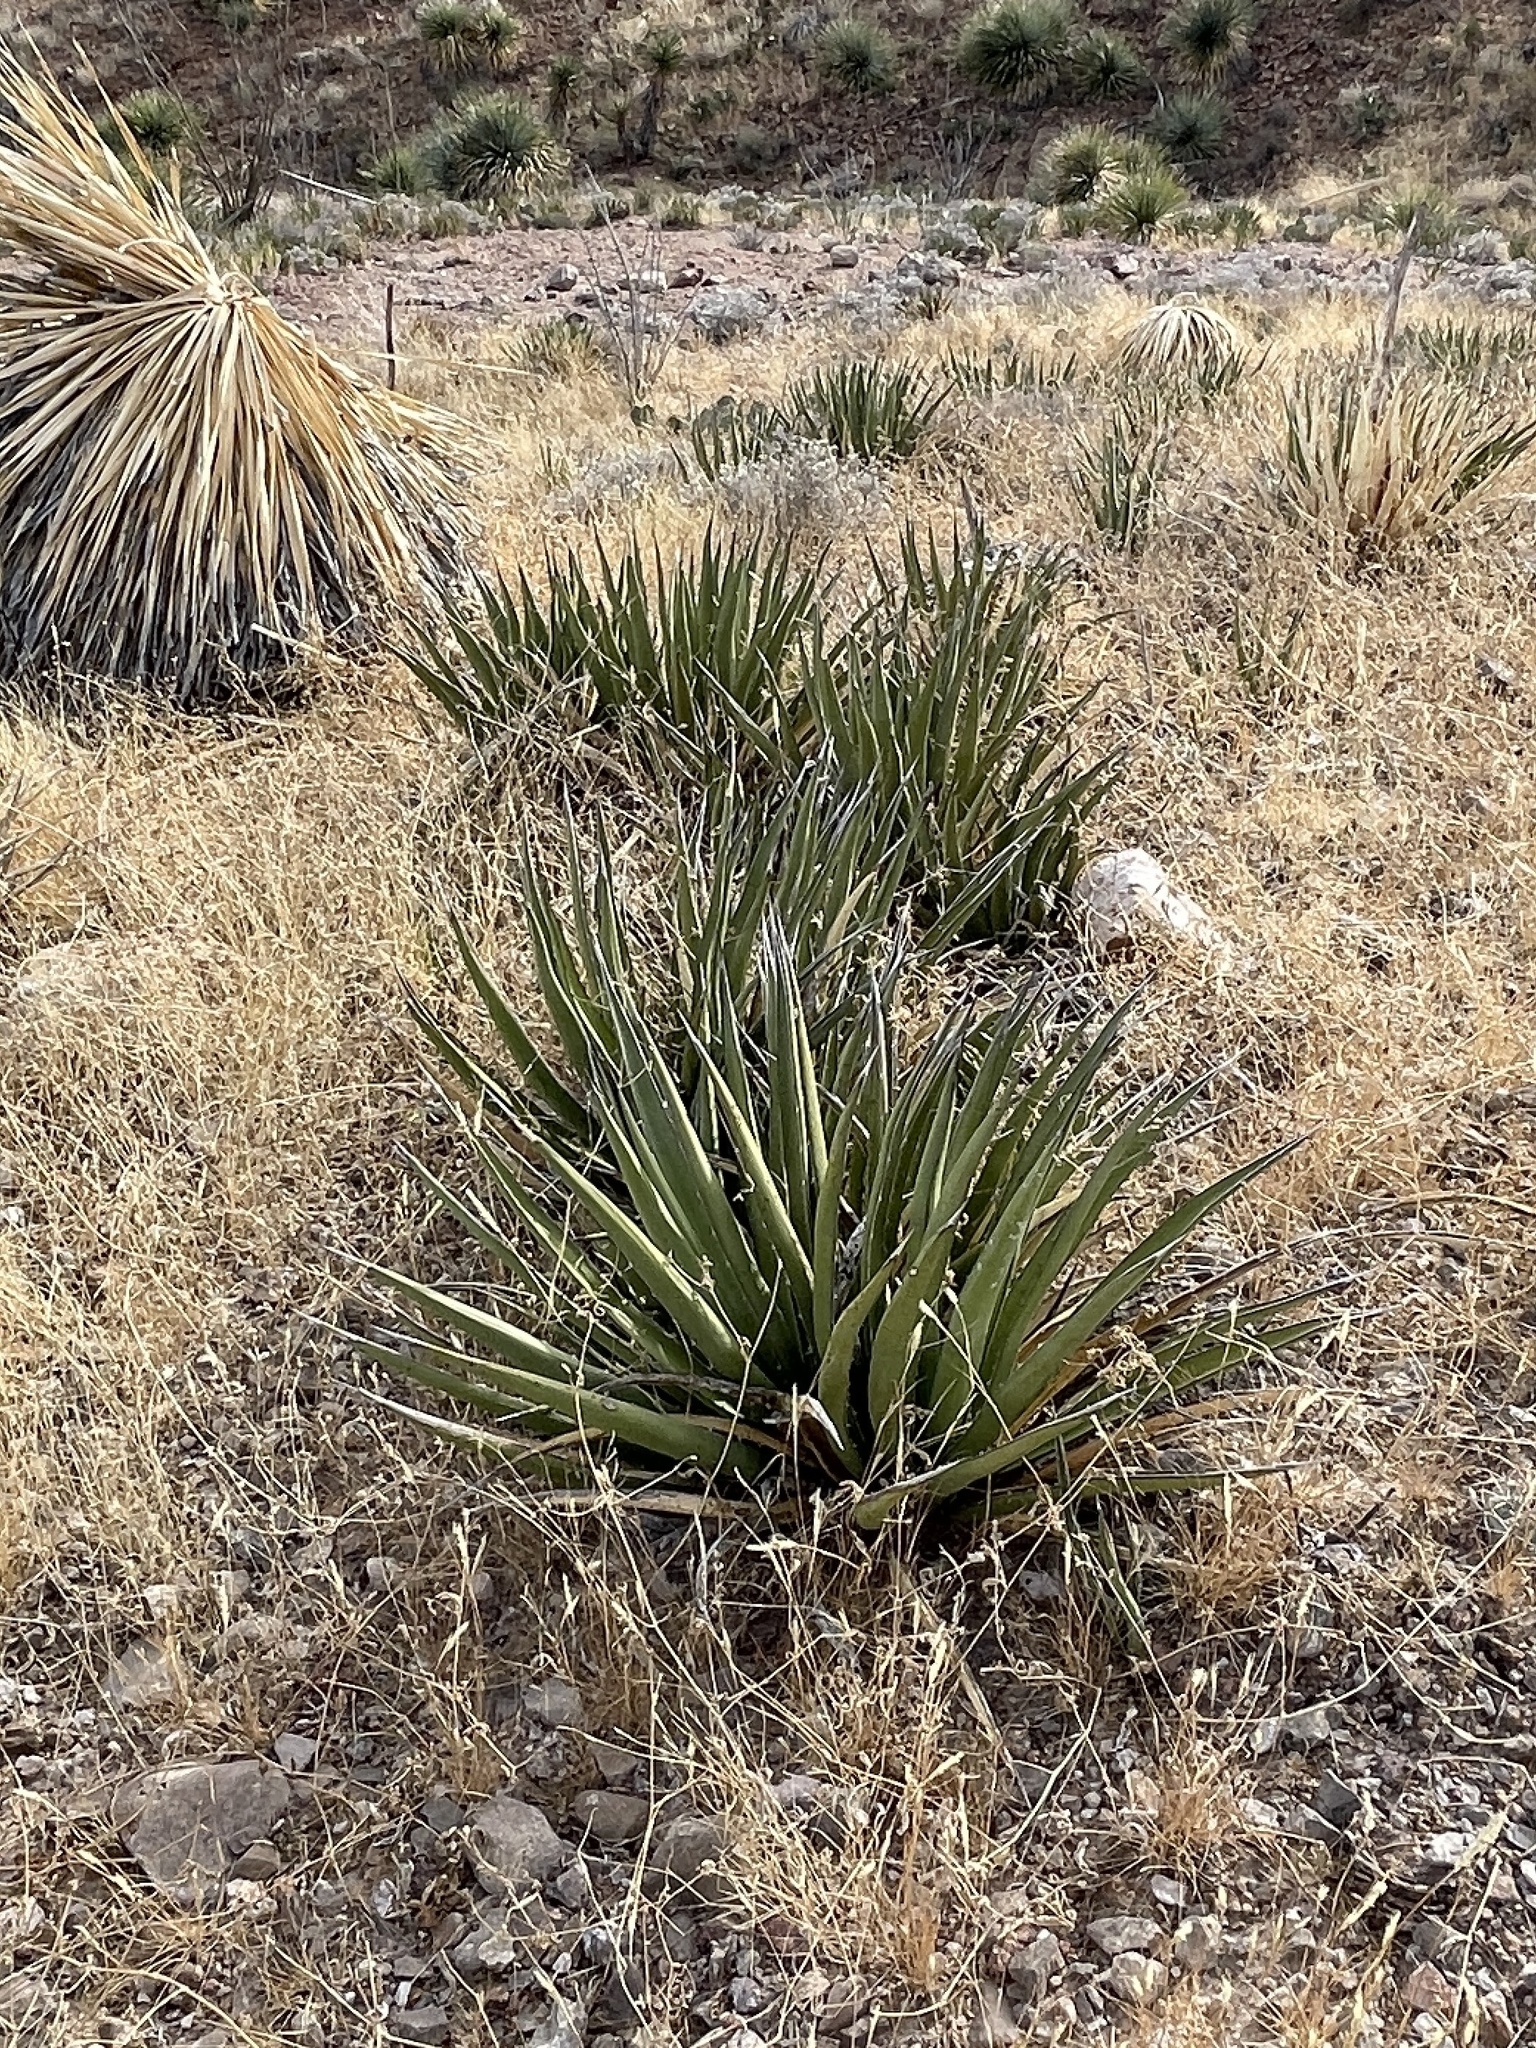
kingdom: Plantae
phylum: Tracheophyta
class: Liliopsida
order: Asparagales
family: Asparagaceae
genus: Agave
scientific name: Agave lechuguilla
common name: Lecheguilla agave
